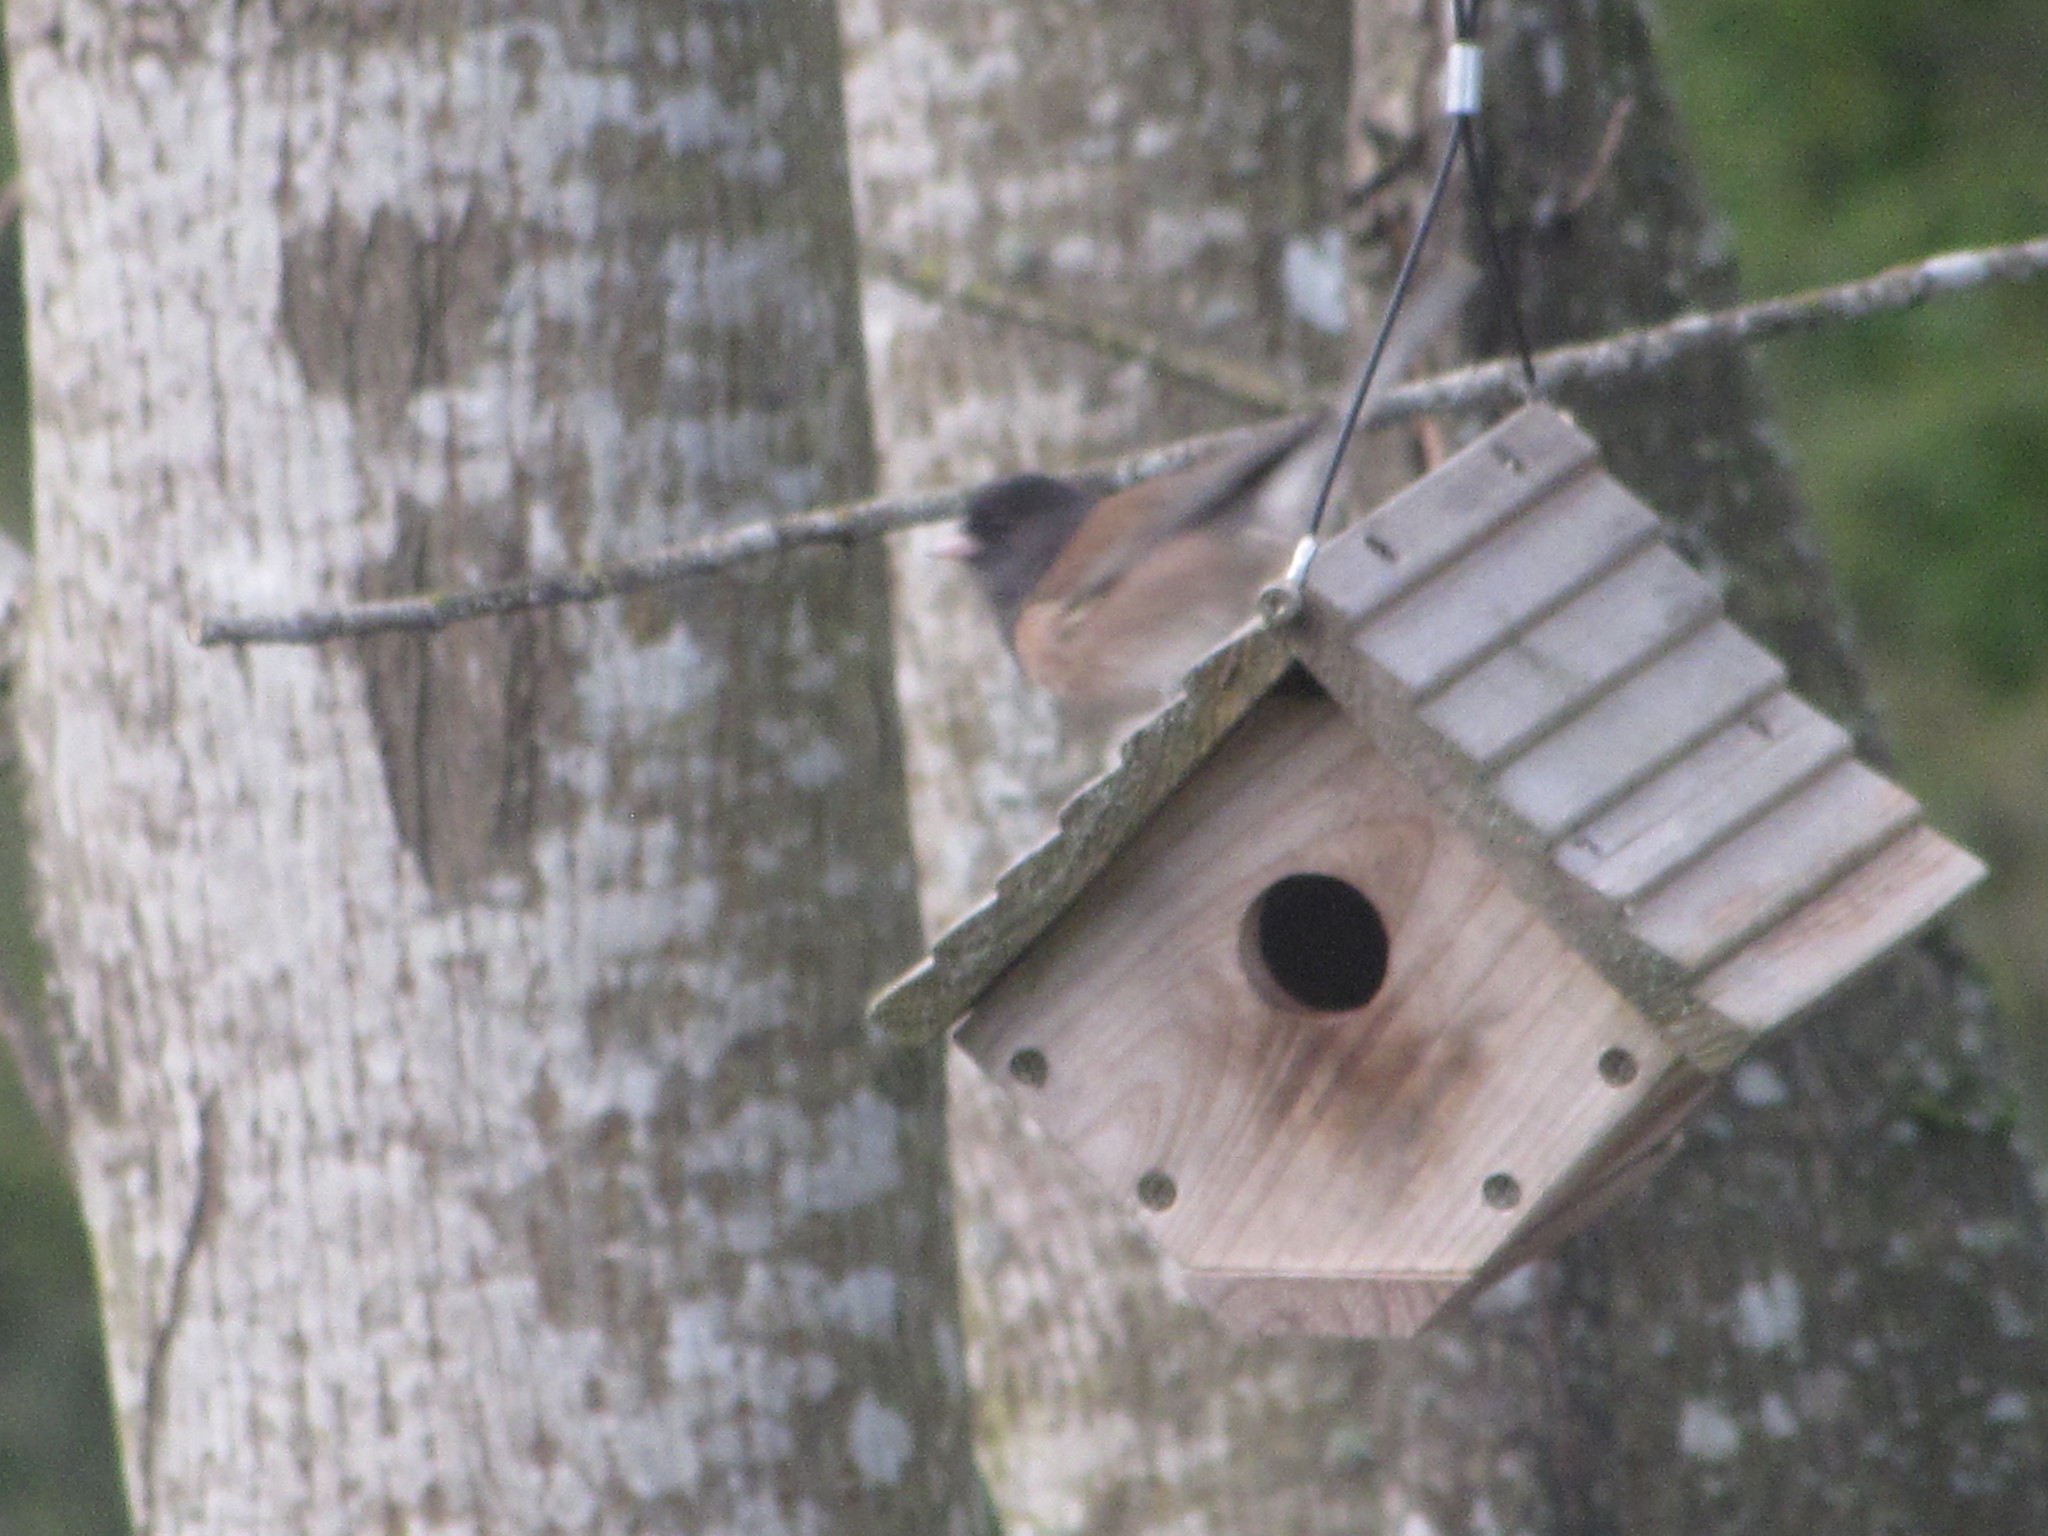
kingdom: Animalia
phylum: Chordata
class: Aves
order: Passeriformes
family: Passerellidae
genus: Junco
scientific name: Junco hyemalis
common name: Dark-eyed junco
